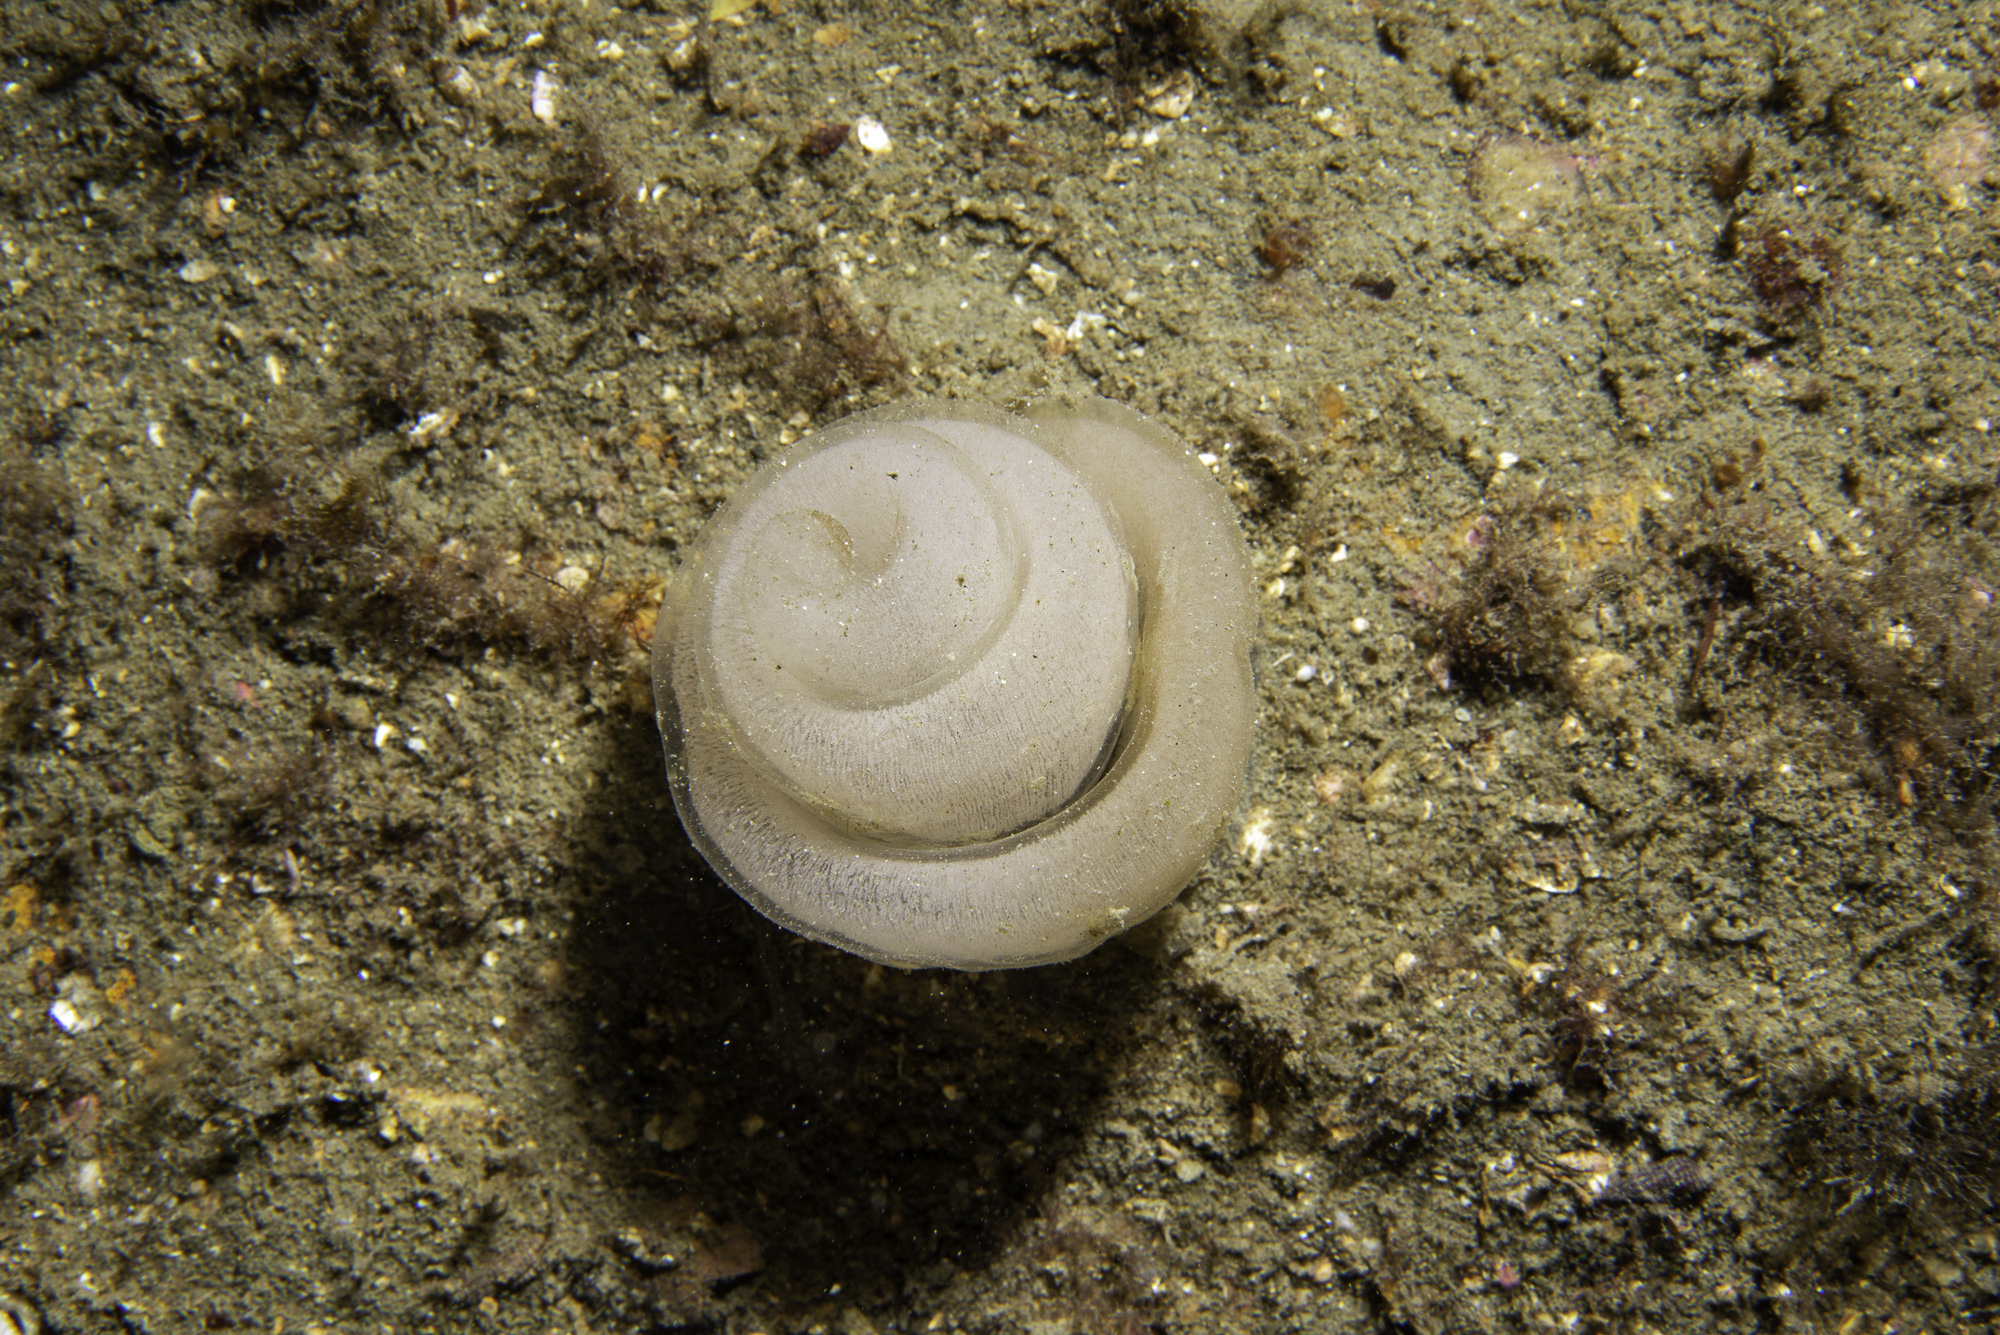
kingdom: Animalia
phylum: Mollusca
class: Gastropoda
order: Pleurobranchida
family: Pleurobranchidae
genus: Pleurobranchus
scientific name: Pleurobranchus membranaceus
